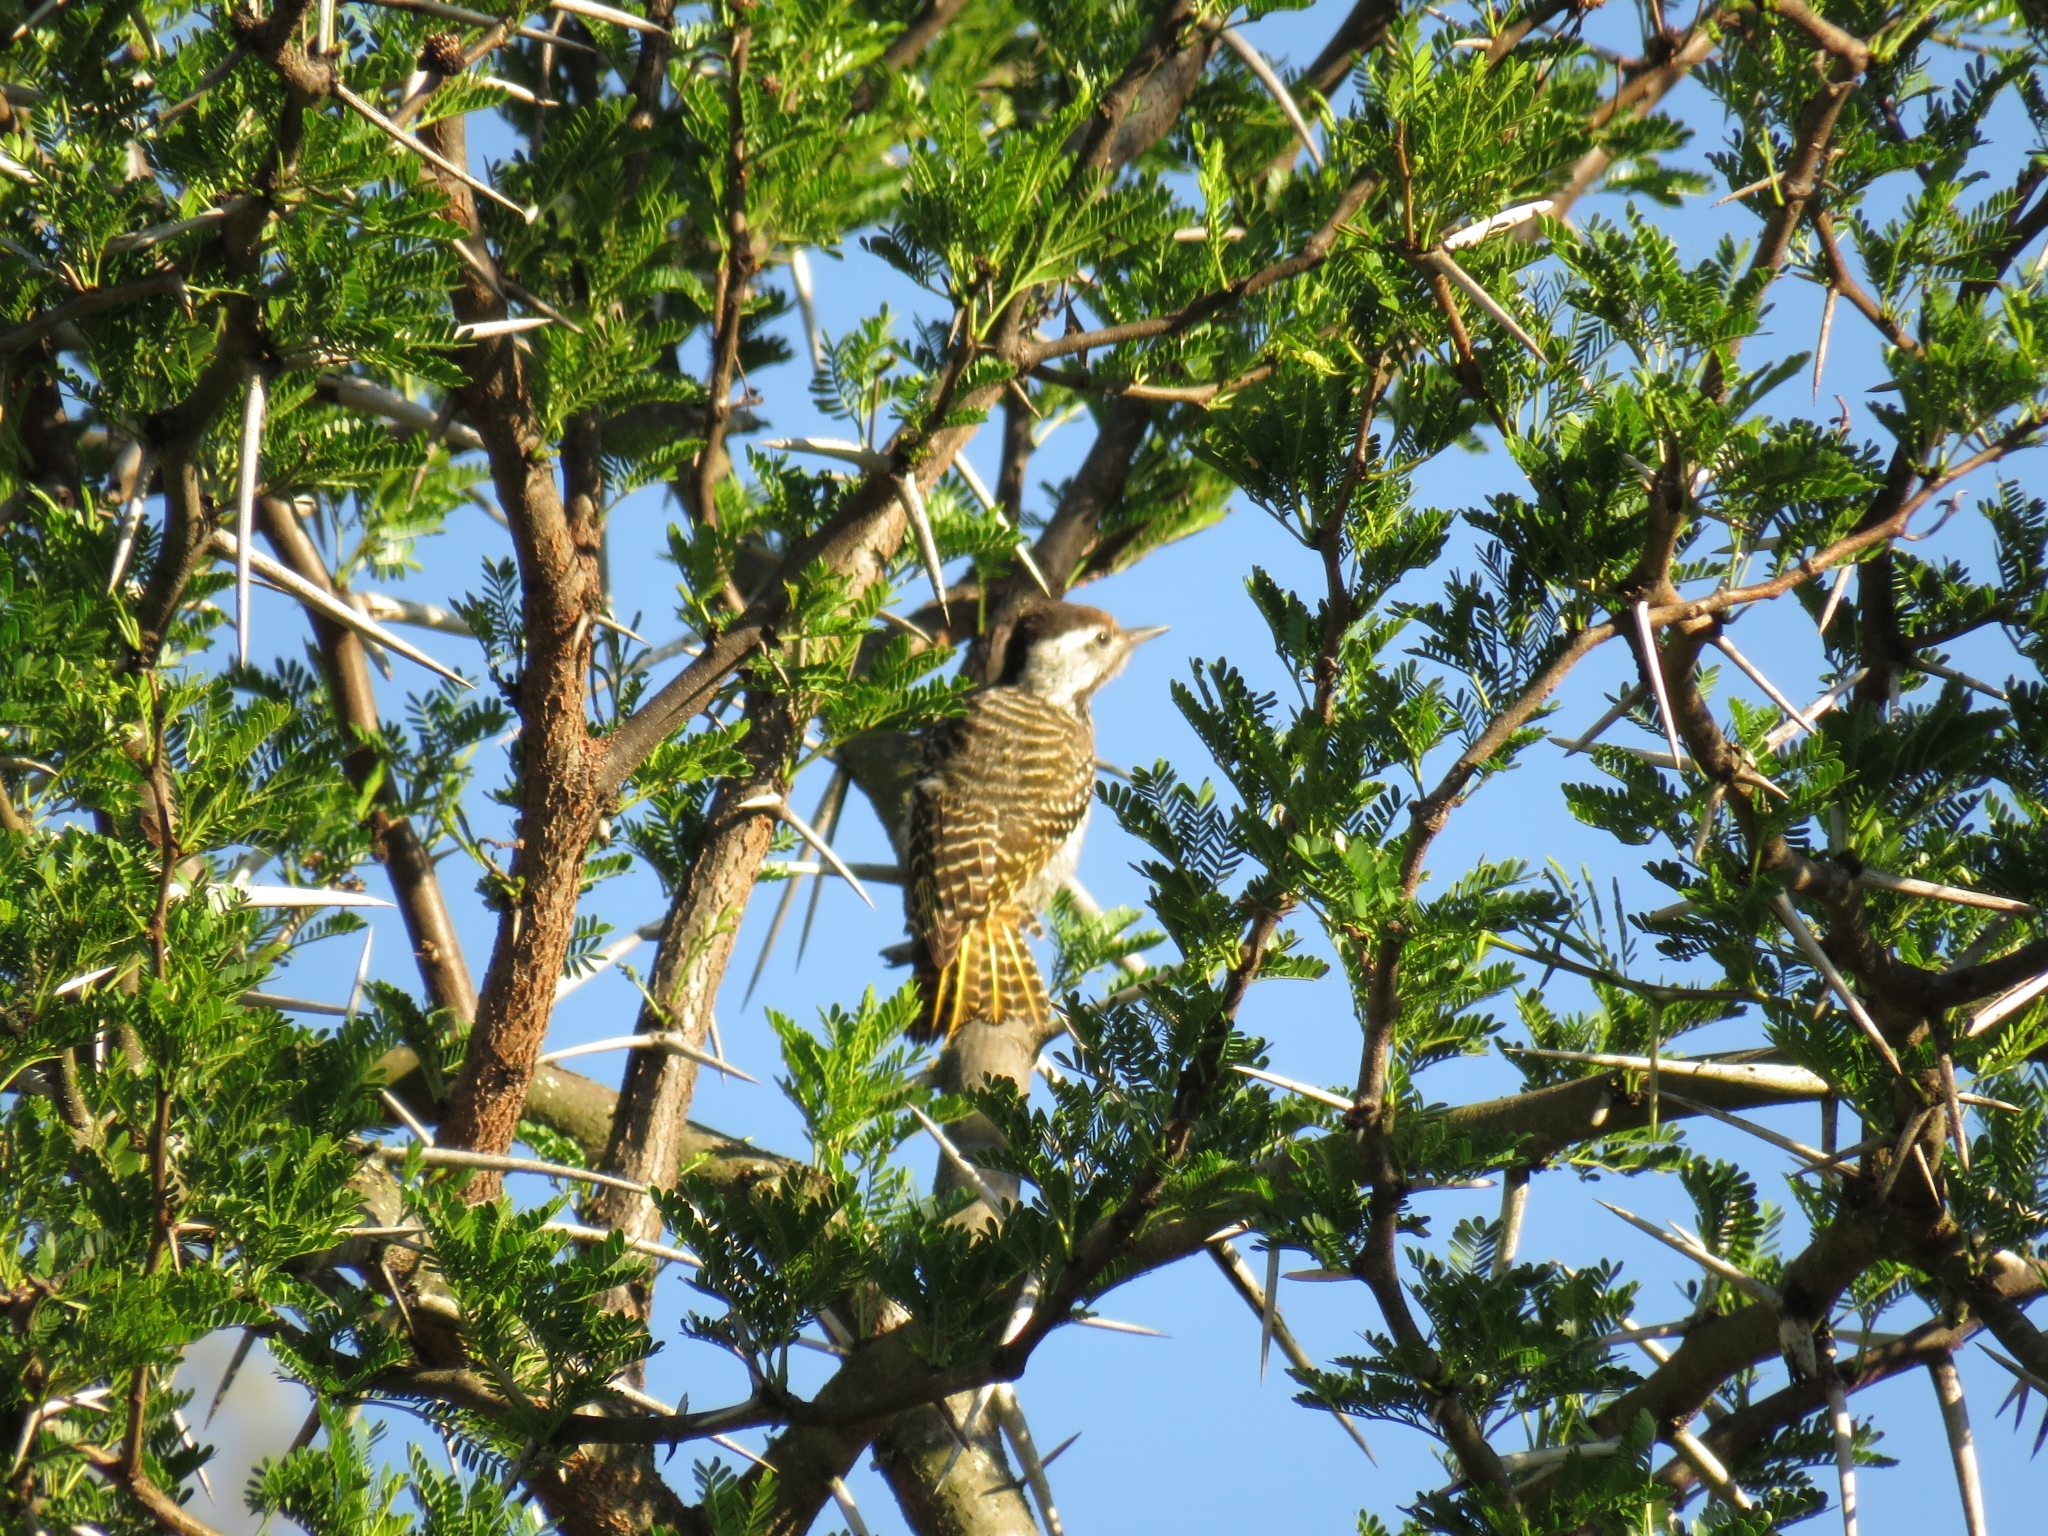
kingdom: Animalia
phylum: Chordata
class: Aves
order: Piciformes
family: Picidae
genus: Dendropicos
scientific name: Dendropicos fuscescens
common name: Cardinal woodpecker
